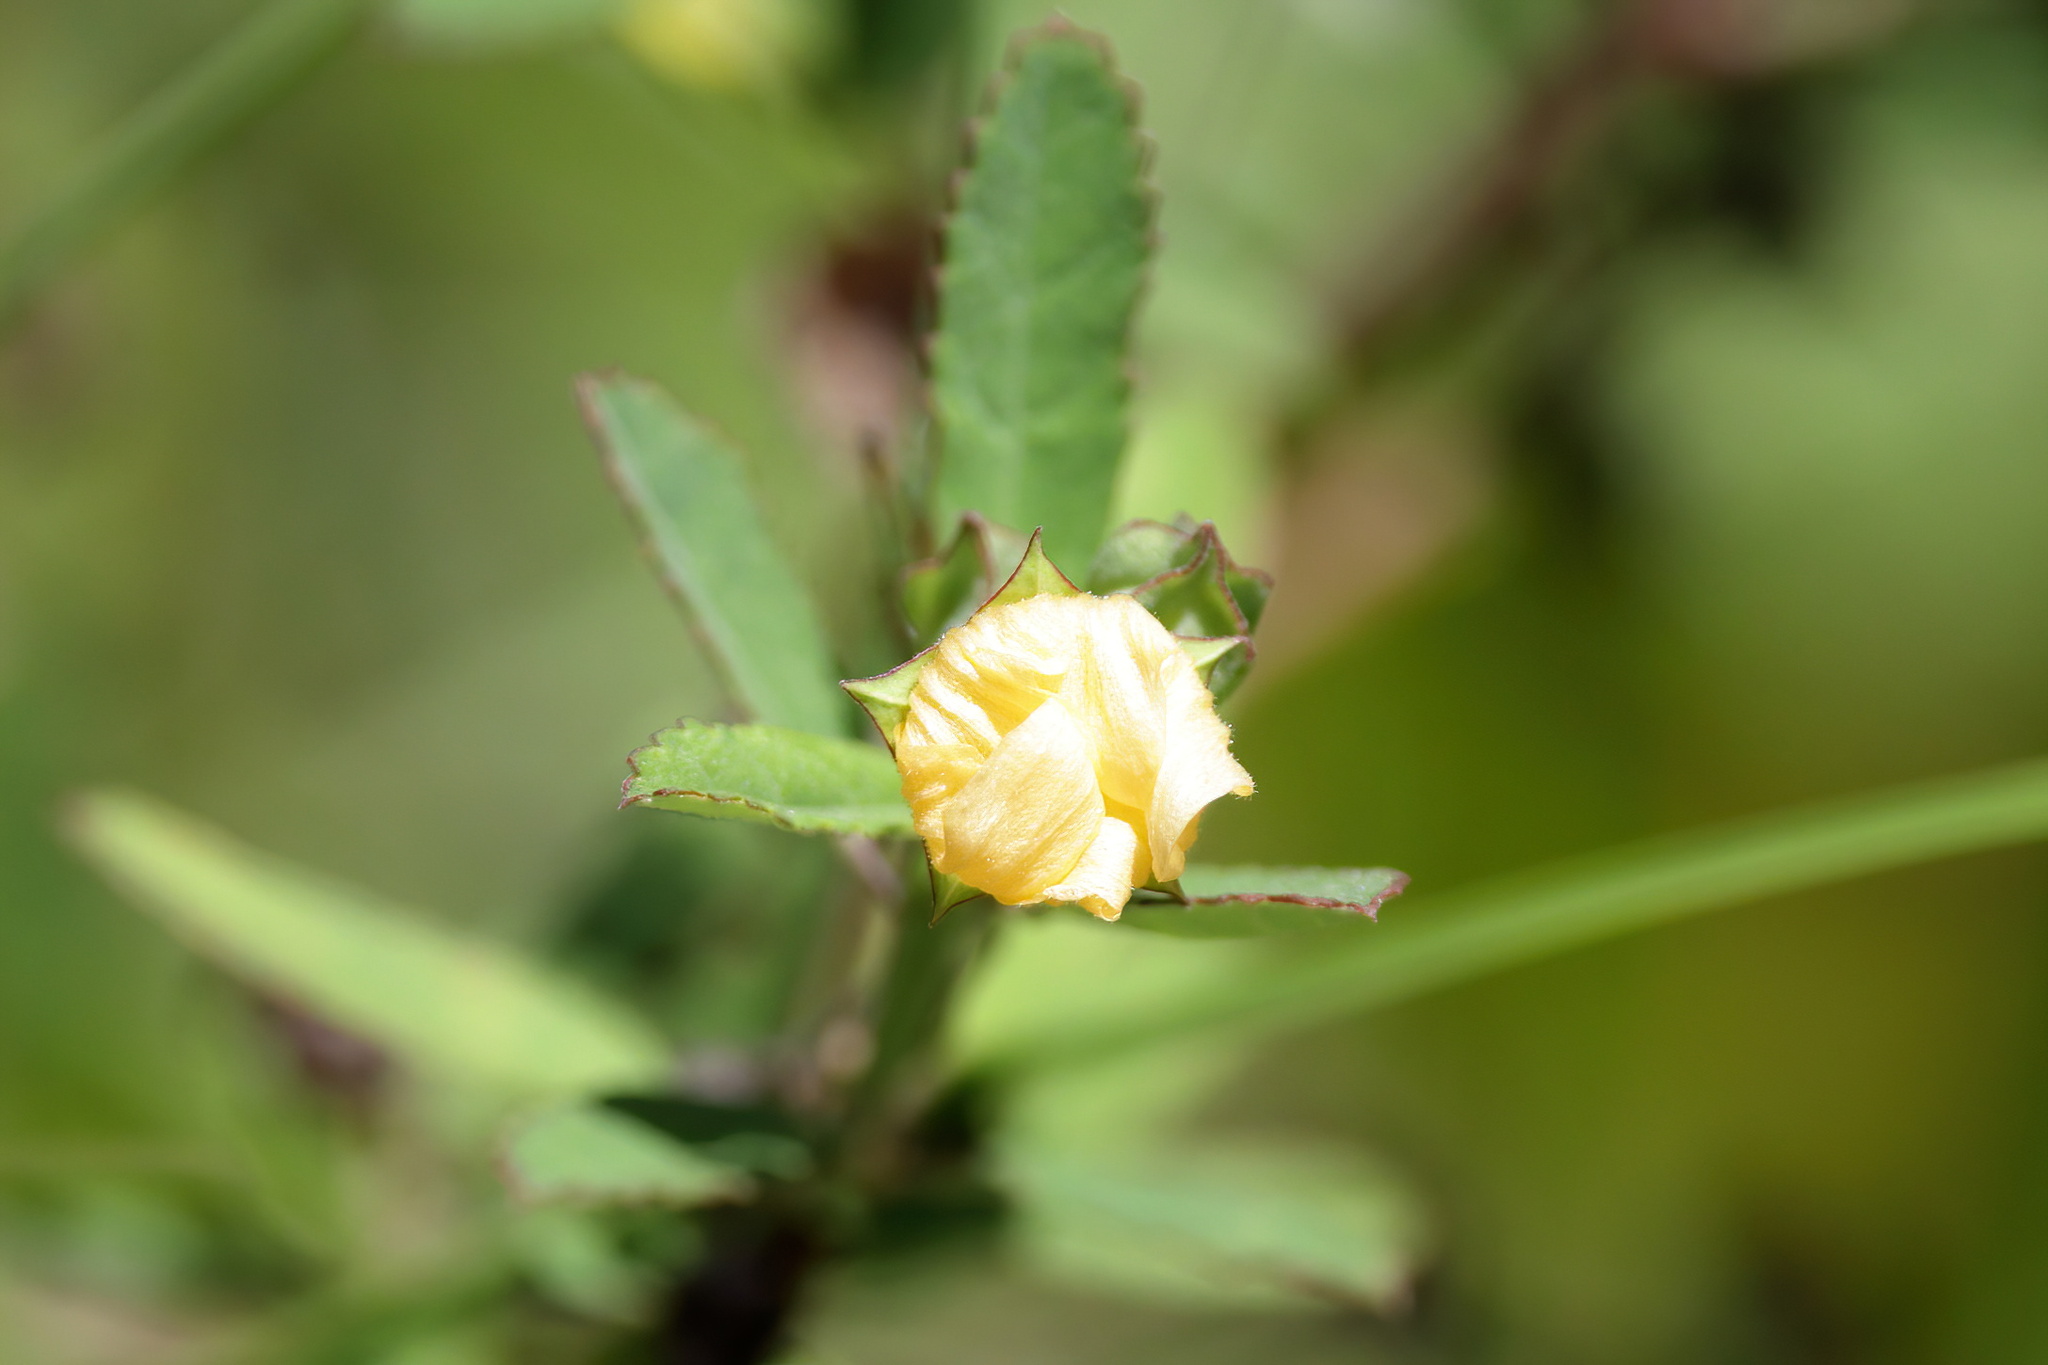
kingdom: Plantae
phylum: Tracheophyta
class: Magnoliopsida
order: Malvales
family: Malvaceae
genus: Sida
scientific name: Sida rhombifolia
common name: Queensland-hemp
